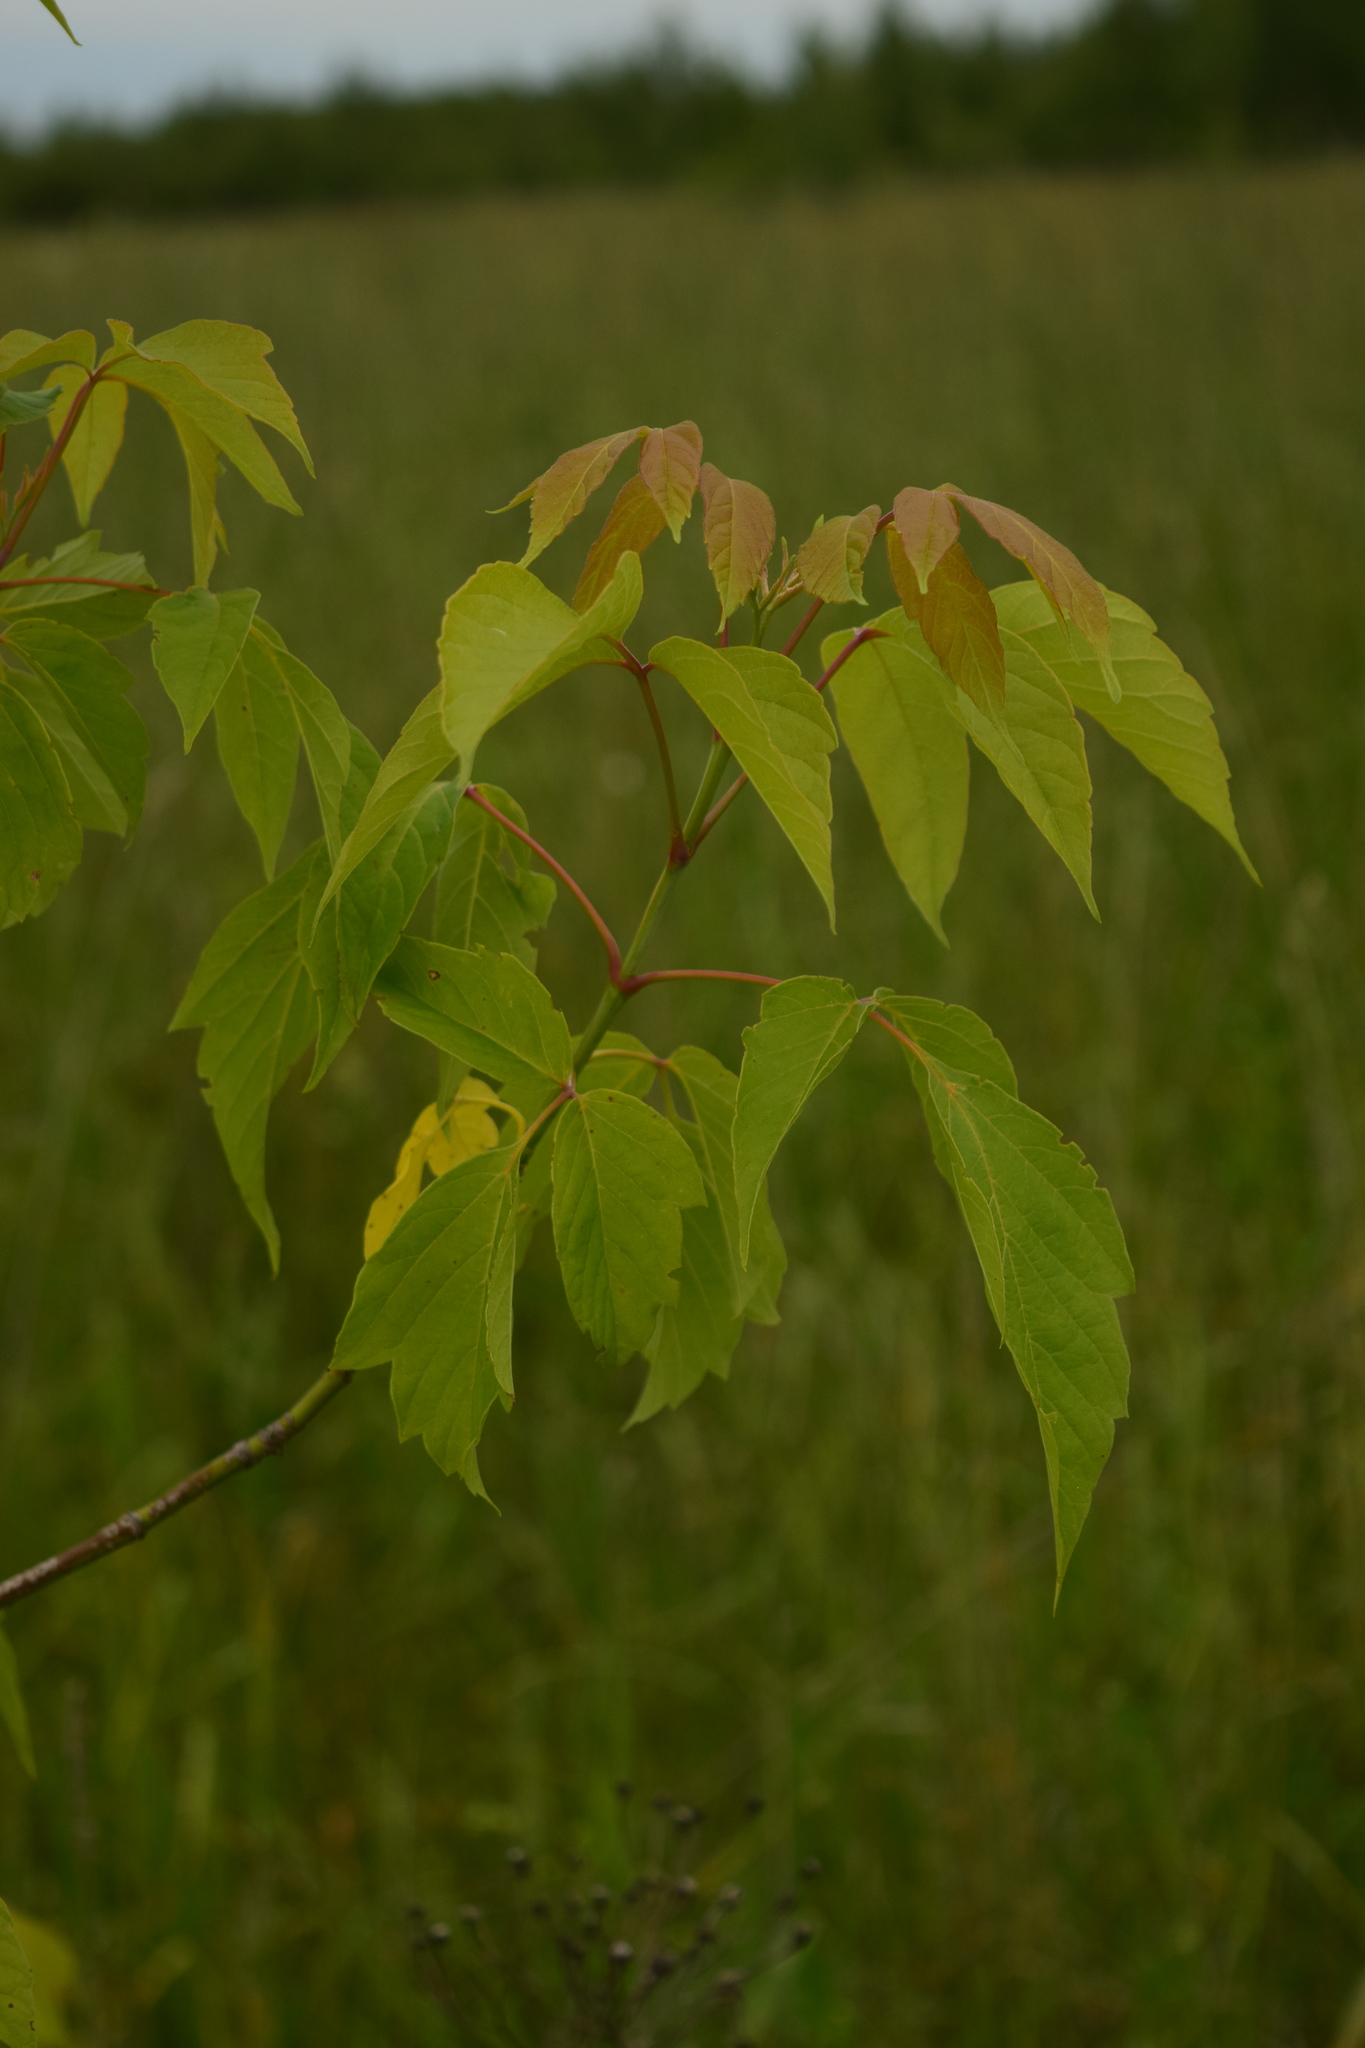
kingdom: Plantae
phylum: Tracheophyta
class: Magnoliopsida
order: Sapindales
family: Sapindaceae
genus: Acer
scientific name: Acer negundo
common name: Ashleaf maple
